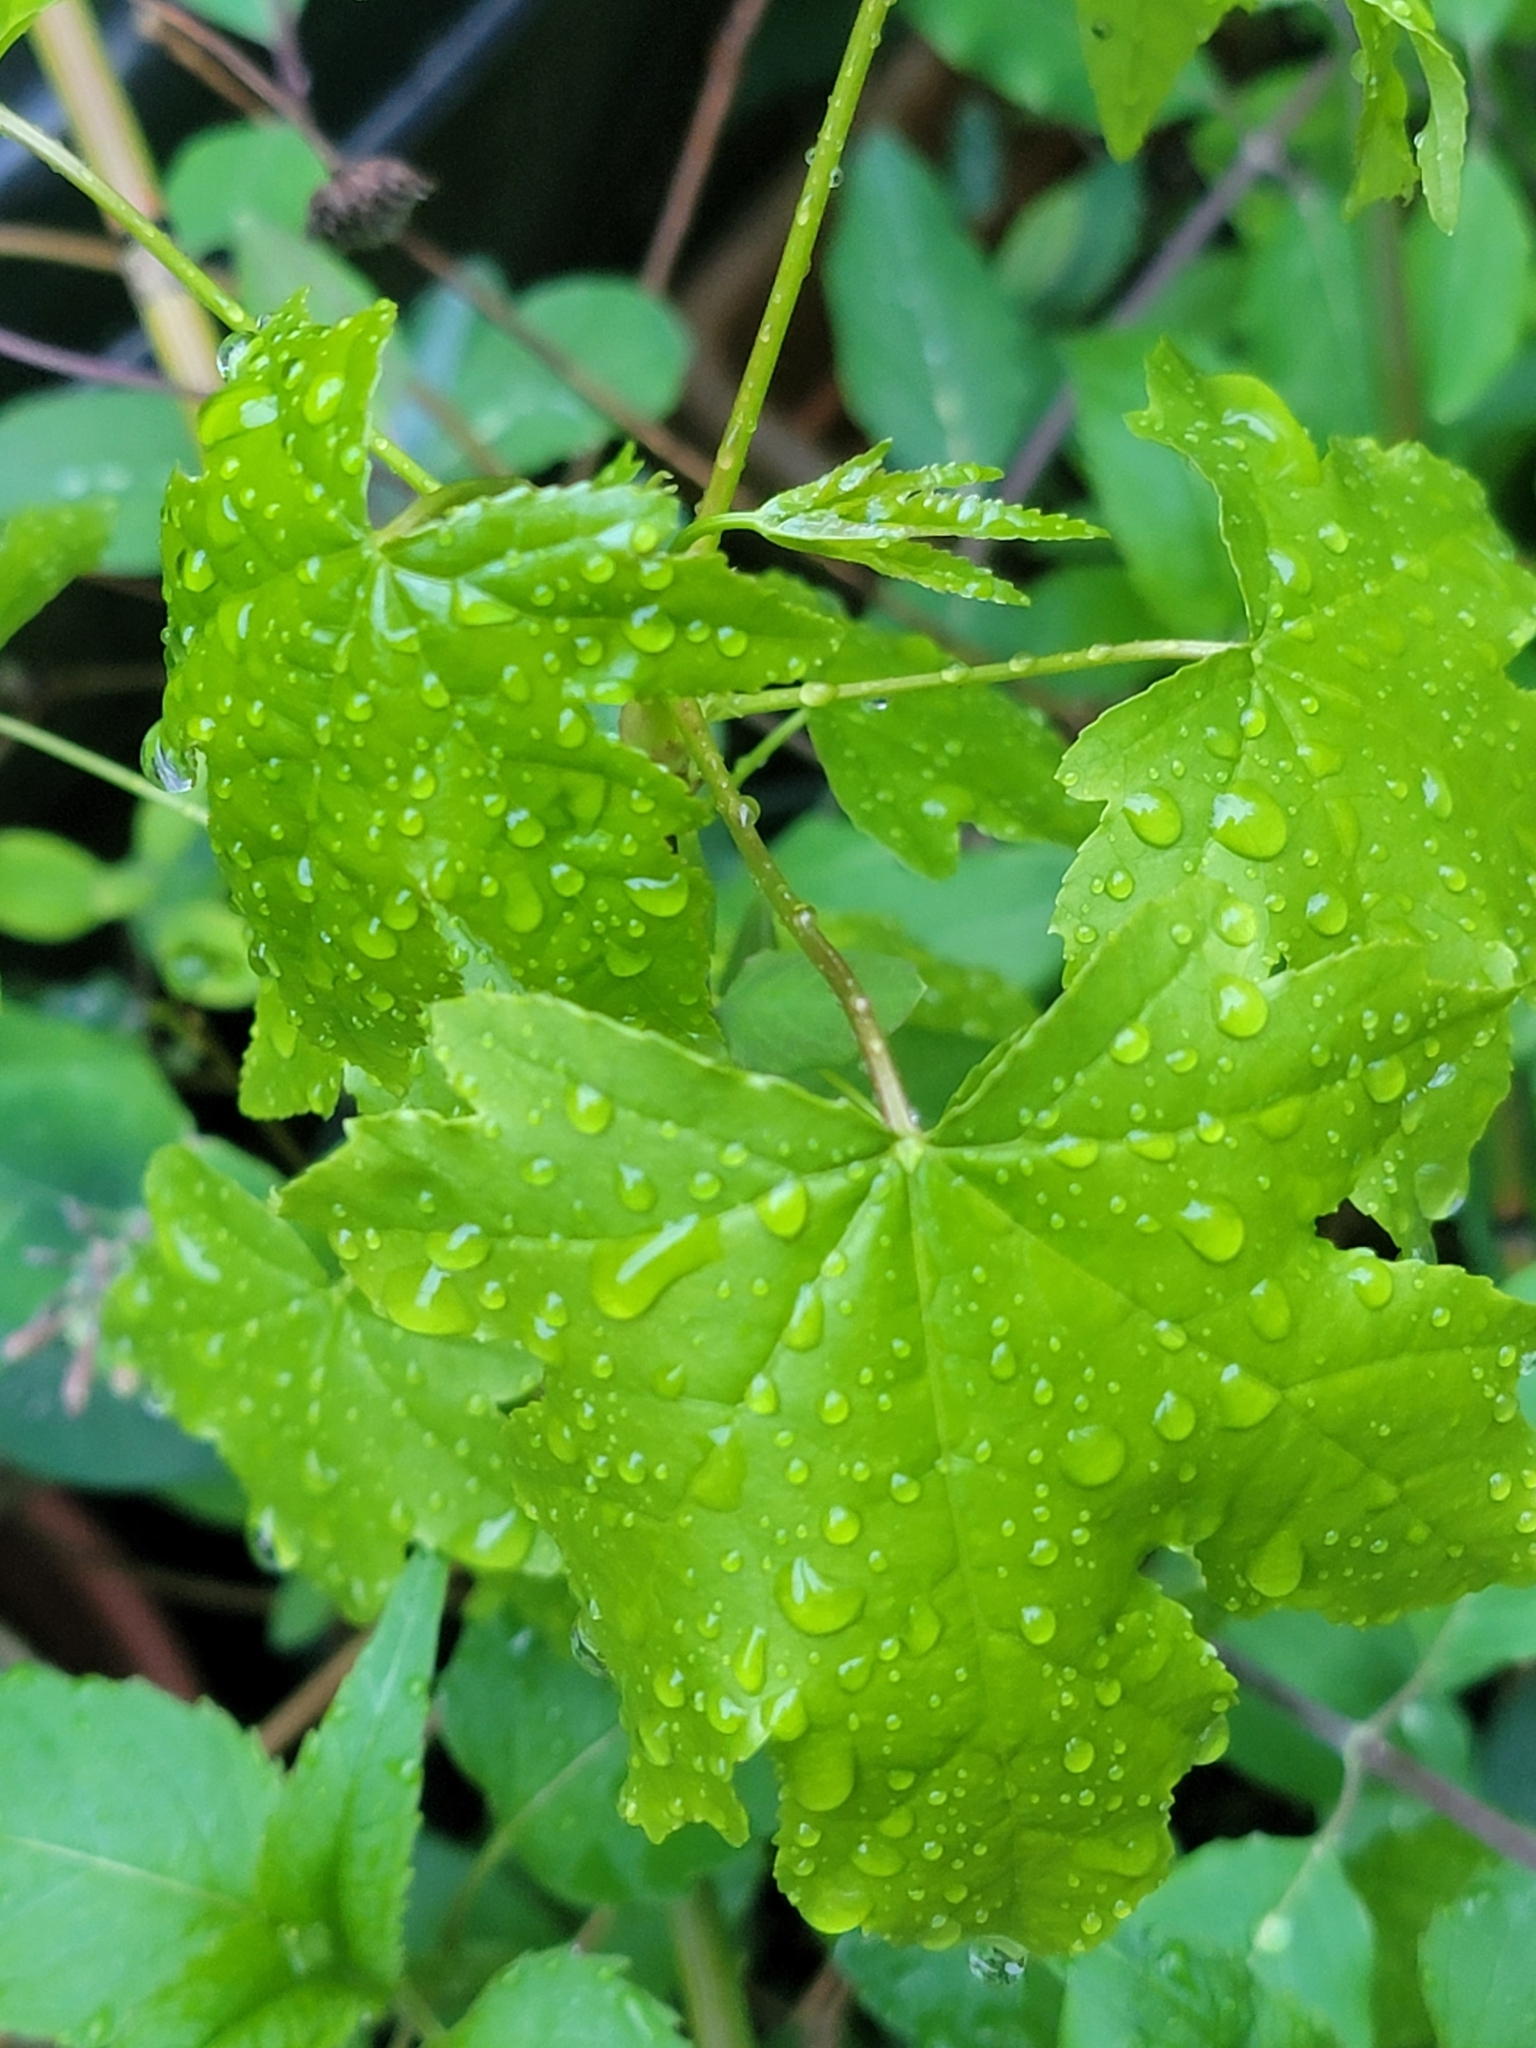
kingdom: Plantae
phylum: Tracheophyta
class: Magnoliopsida
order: Saxifragales
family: Altingiaceae
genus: Liquidambar
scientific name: Liquidambar styraciflua
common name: Sweet gum
